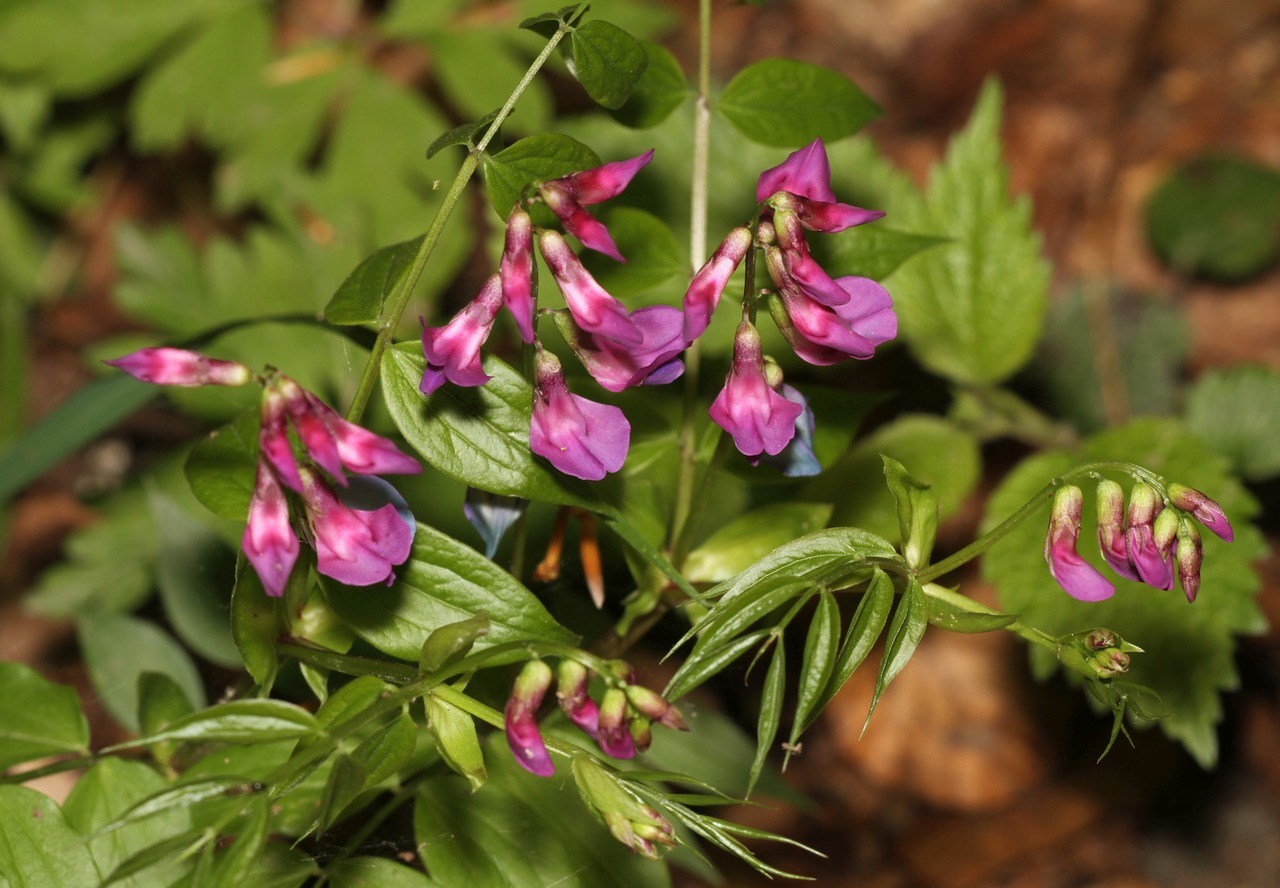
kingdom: Plantae
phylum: Tracheophyta
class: Magnoliopsida
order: Fabales
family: Fabaceae
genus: Lathyrus
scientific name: Lathyrus vernus
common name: Spring pea
